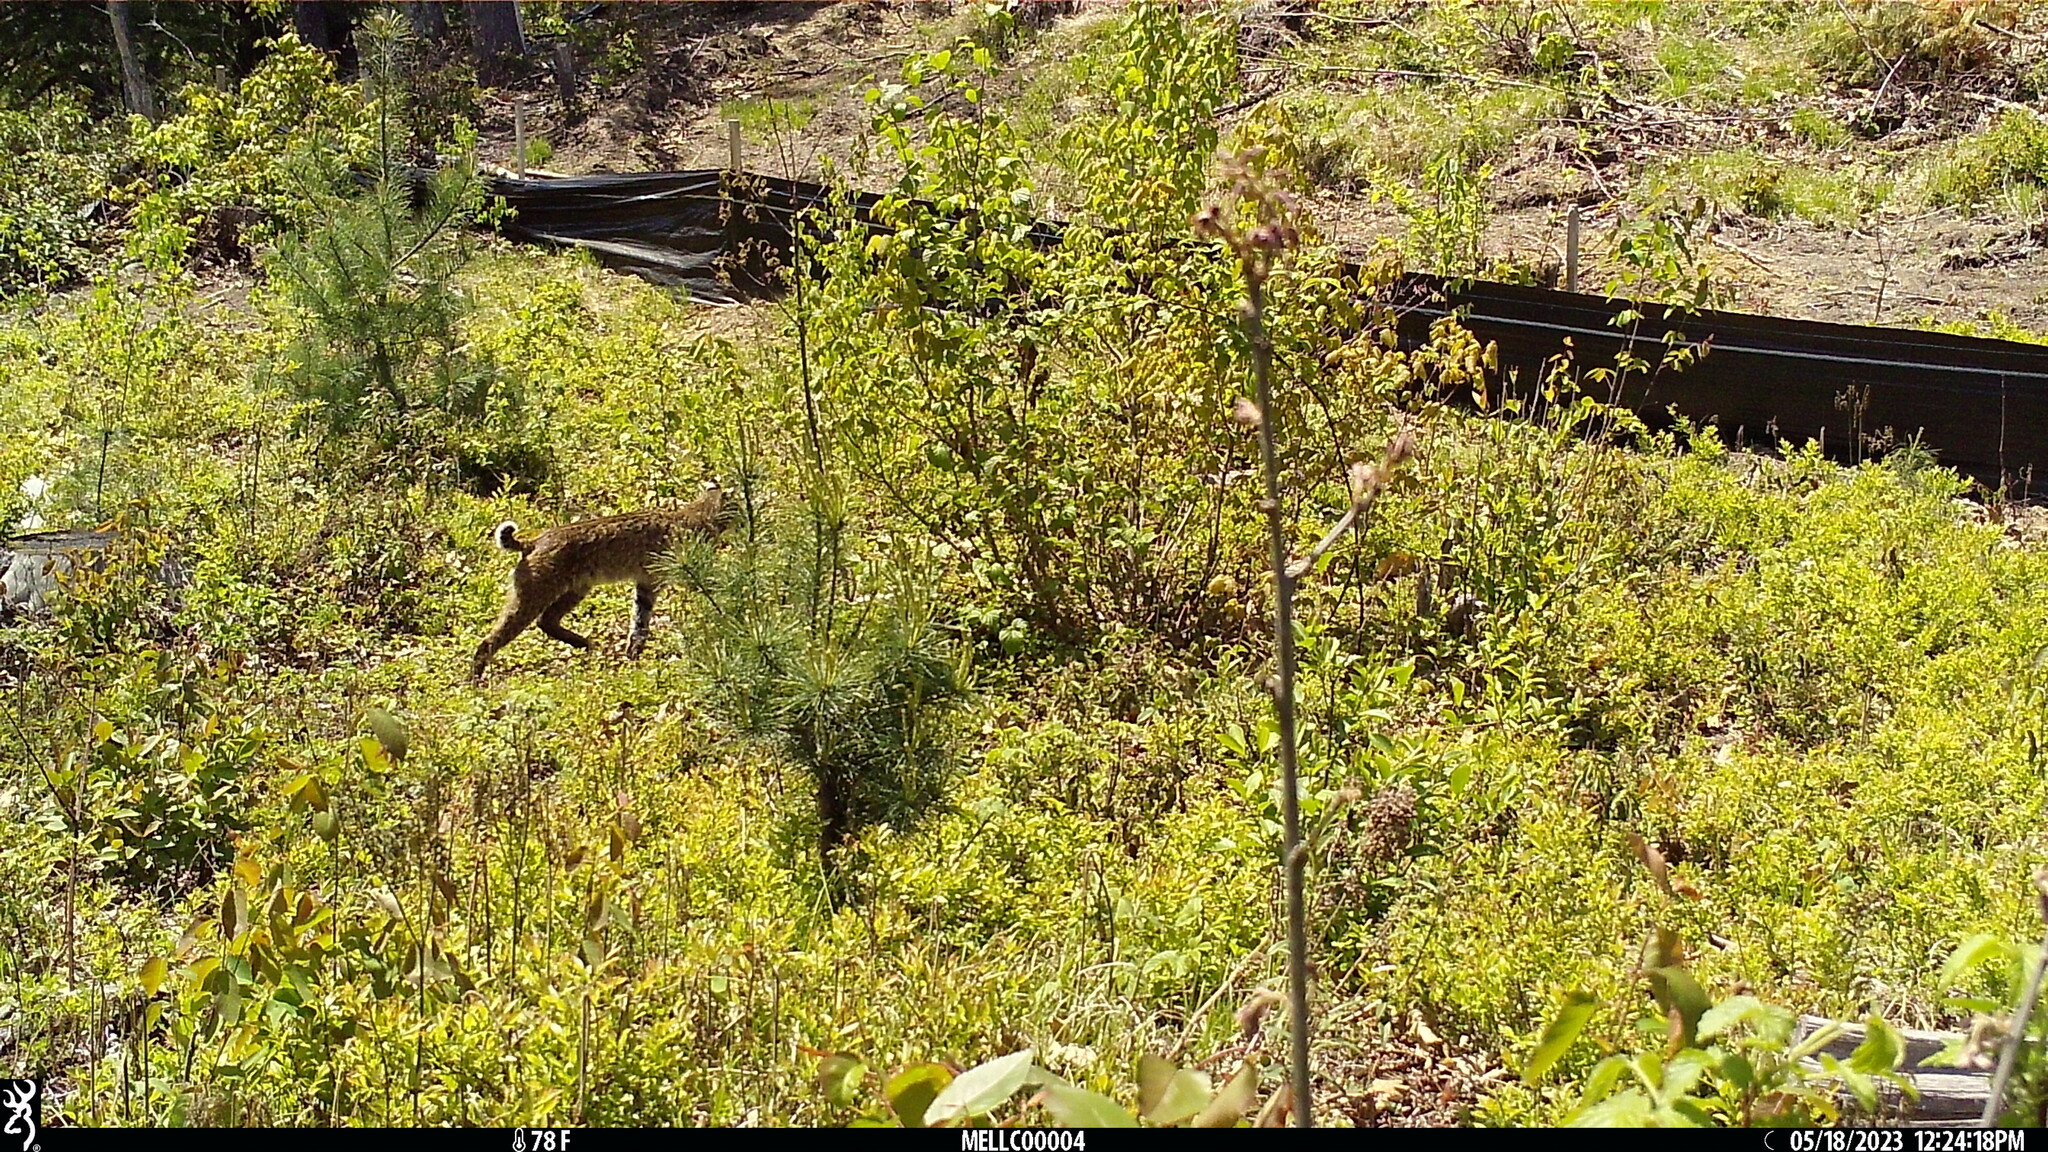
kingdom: Animalia
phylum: Chordata
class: Mammalia
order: Carnivora
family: Felidae
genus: Lynx
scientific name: Lynx rufus
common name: Bobcat
